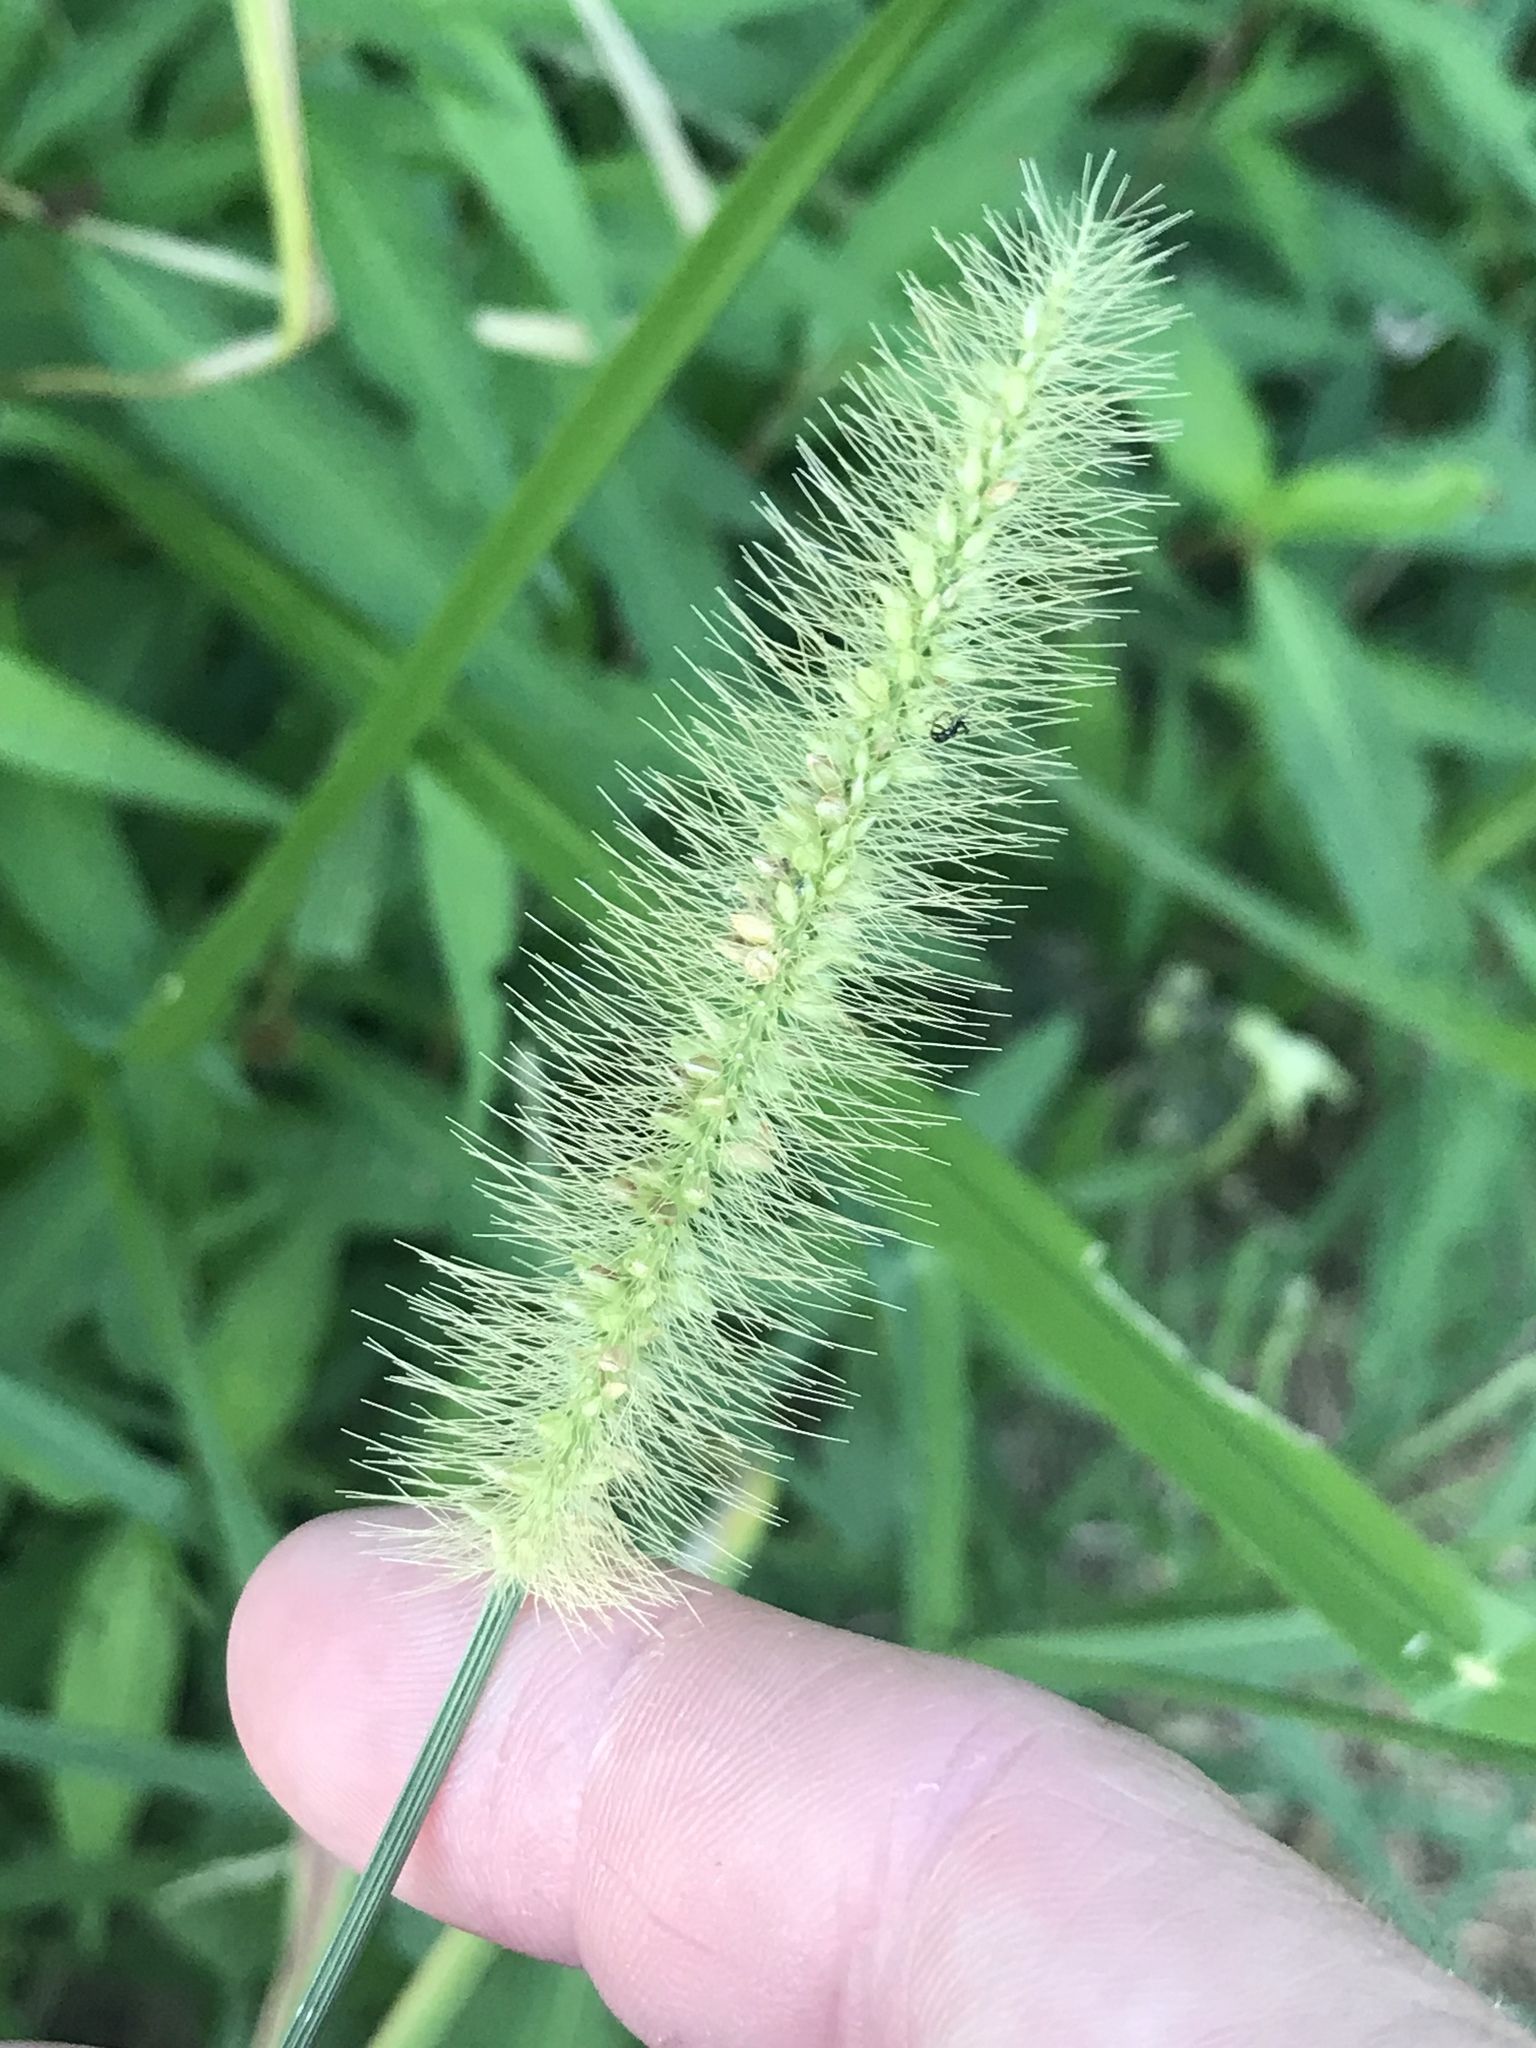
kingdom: Plantae
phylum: Tracheophyta
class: Liliopsida
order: Poales
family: Poaceae
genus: Setaria
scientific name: Setaria parviflora
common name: Knotroot bristle-grass
